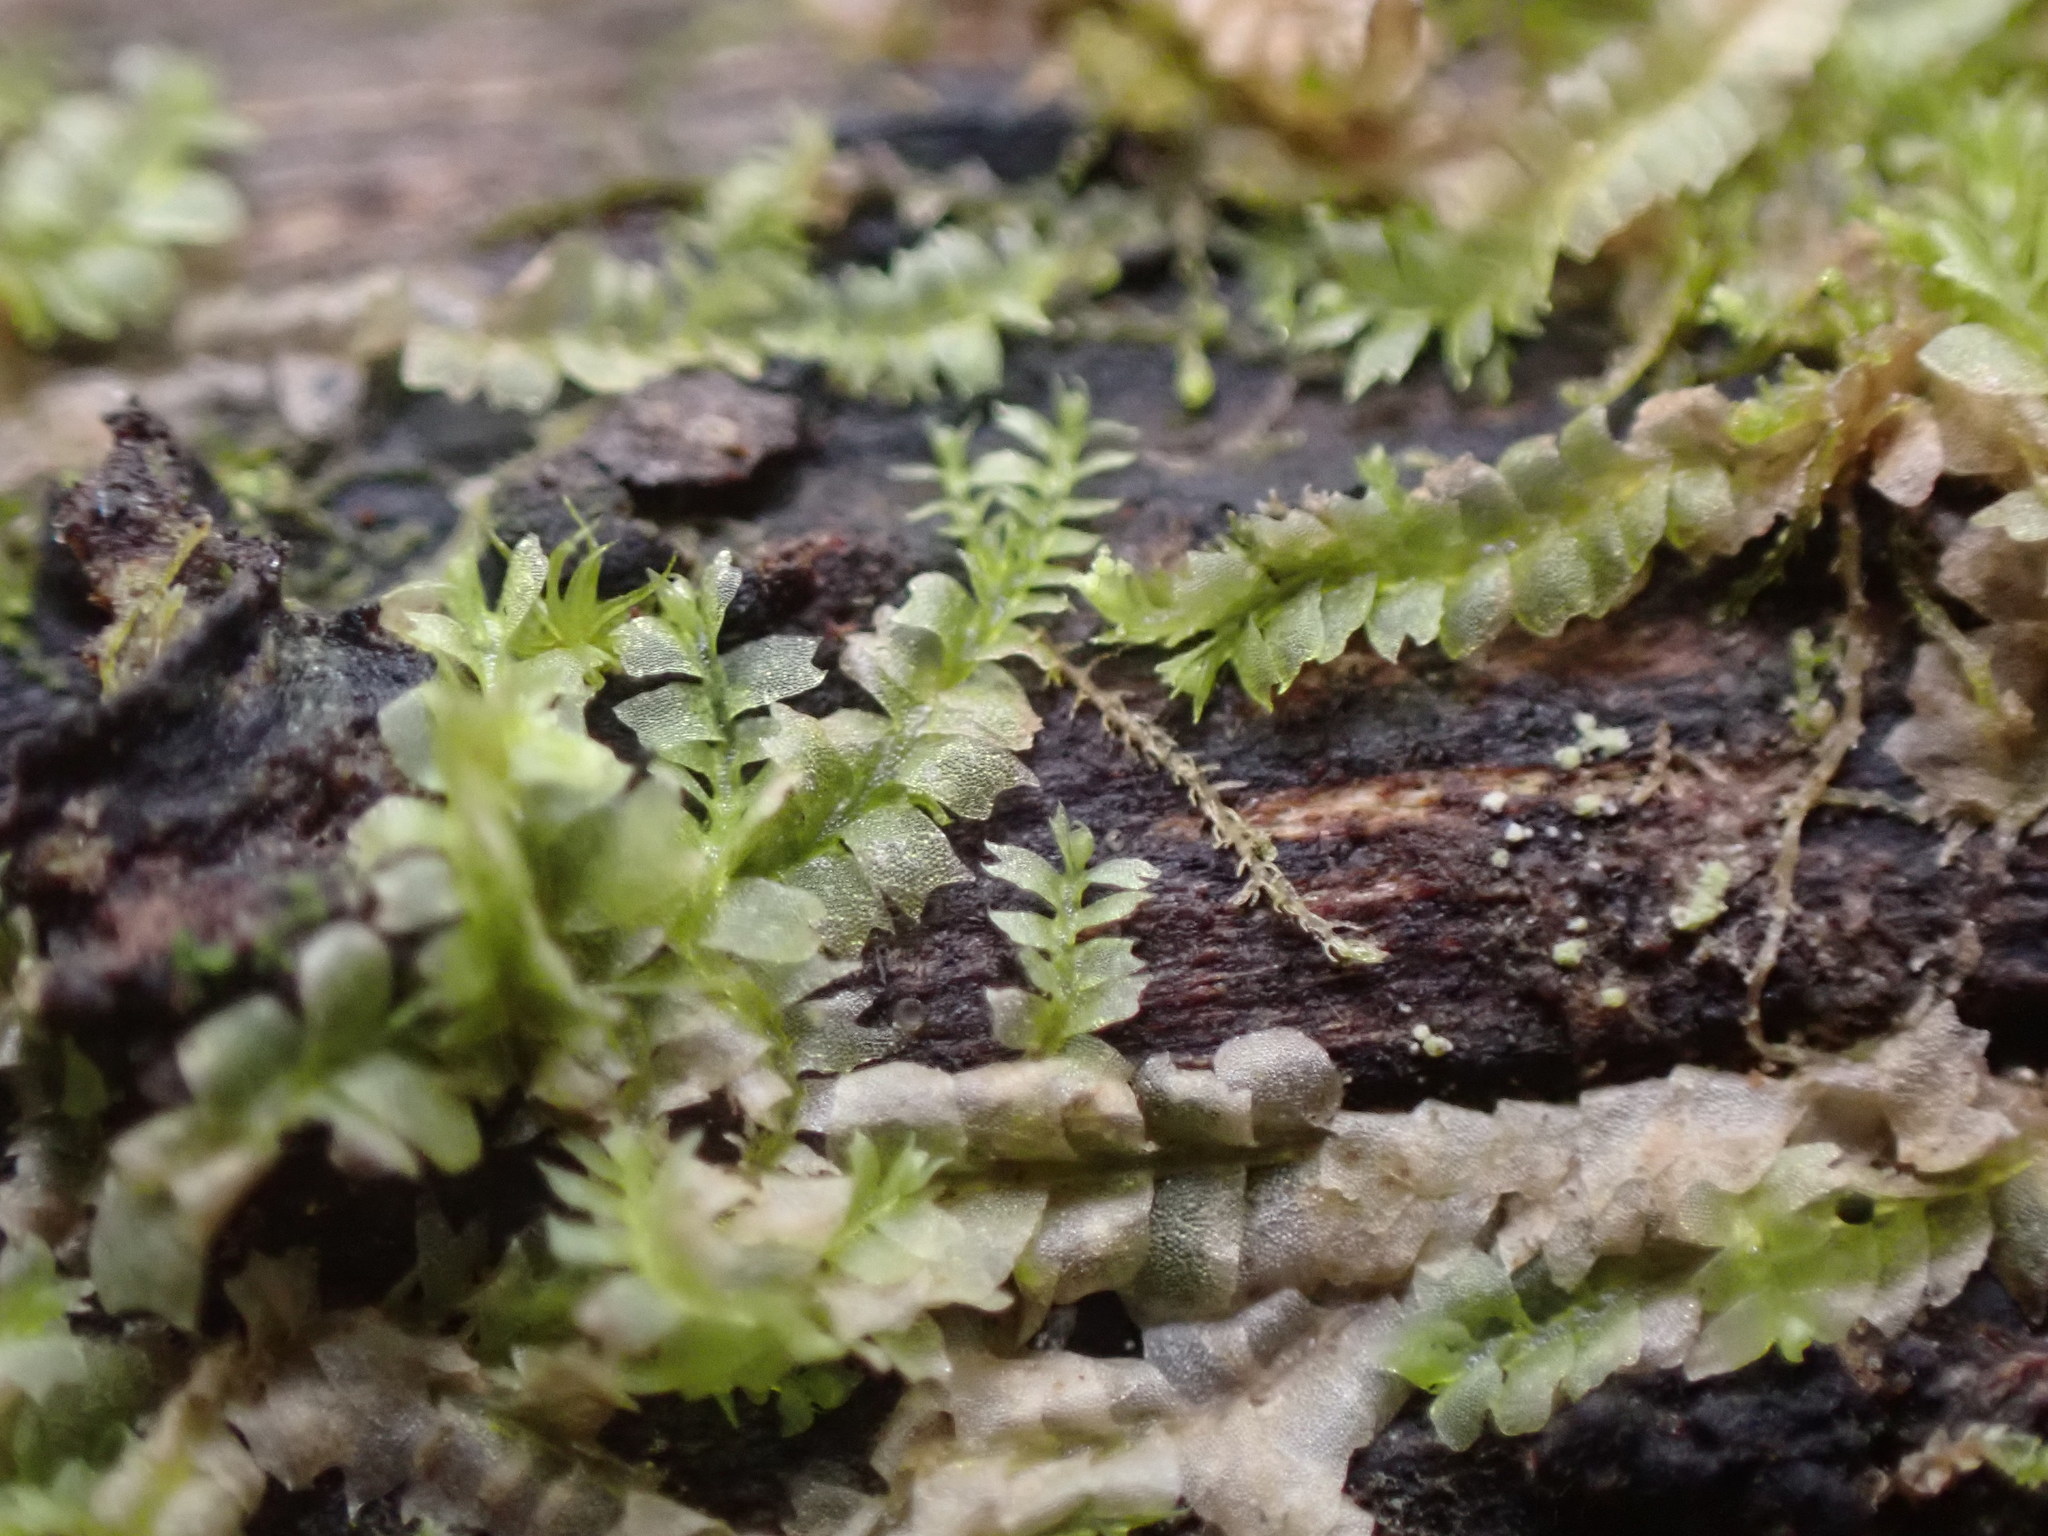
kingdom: Plantae
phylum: Marchantiophyta
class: Jungermanniopsida
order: Jungermanniales
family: Lophocoleaceae
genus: Lophocolea
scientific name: Lophocolea heterophylla
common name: Variable-leaved crestwort
